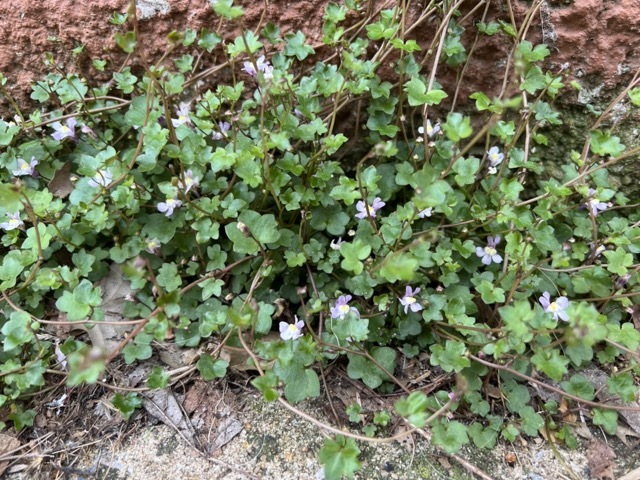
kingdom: Plantae
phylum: Tracheophyta
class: Magnoliopsida
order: Lamiales
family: Plantaginaceae
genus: Cymbalaria
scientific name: Cymbalaria muralis
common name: Ivy-leaved toadflax
